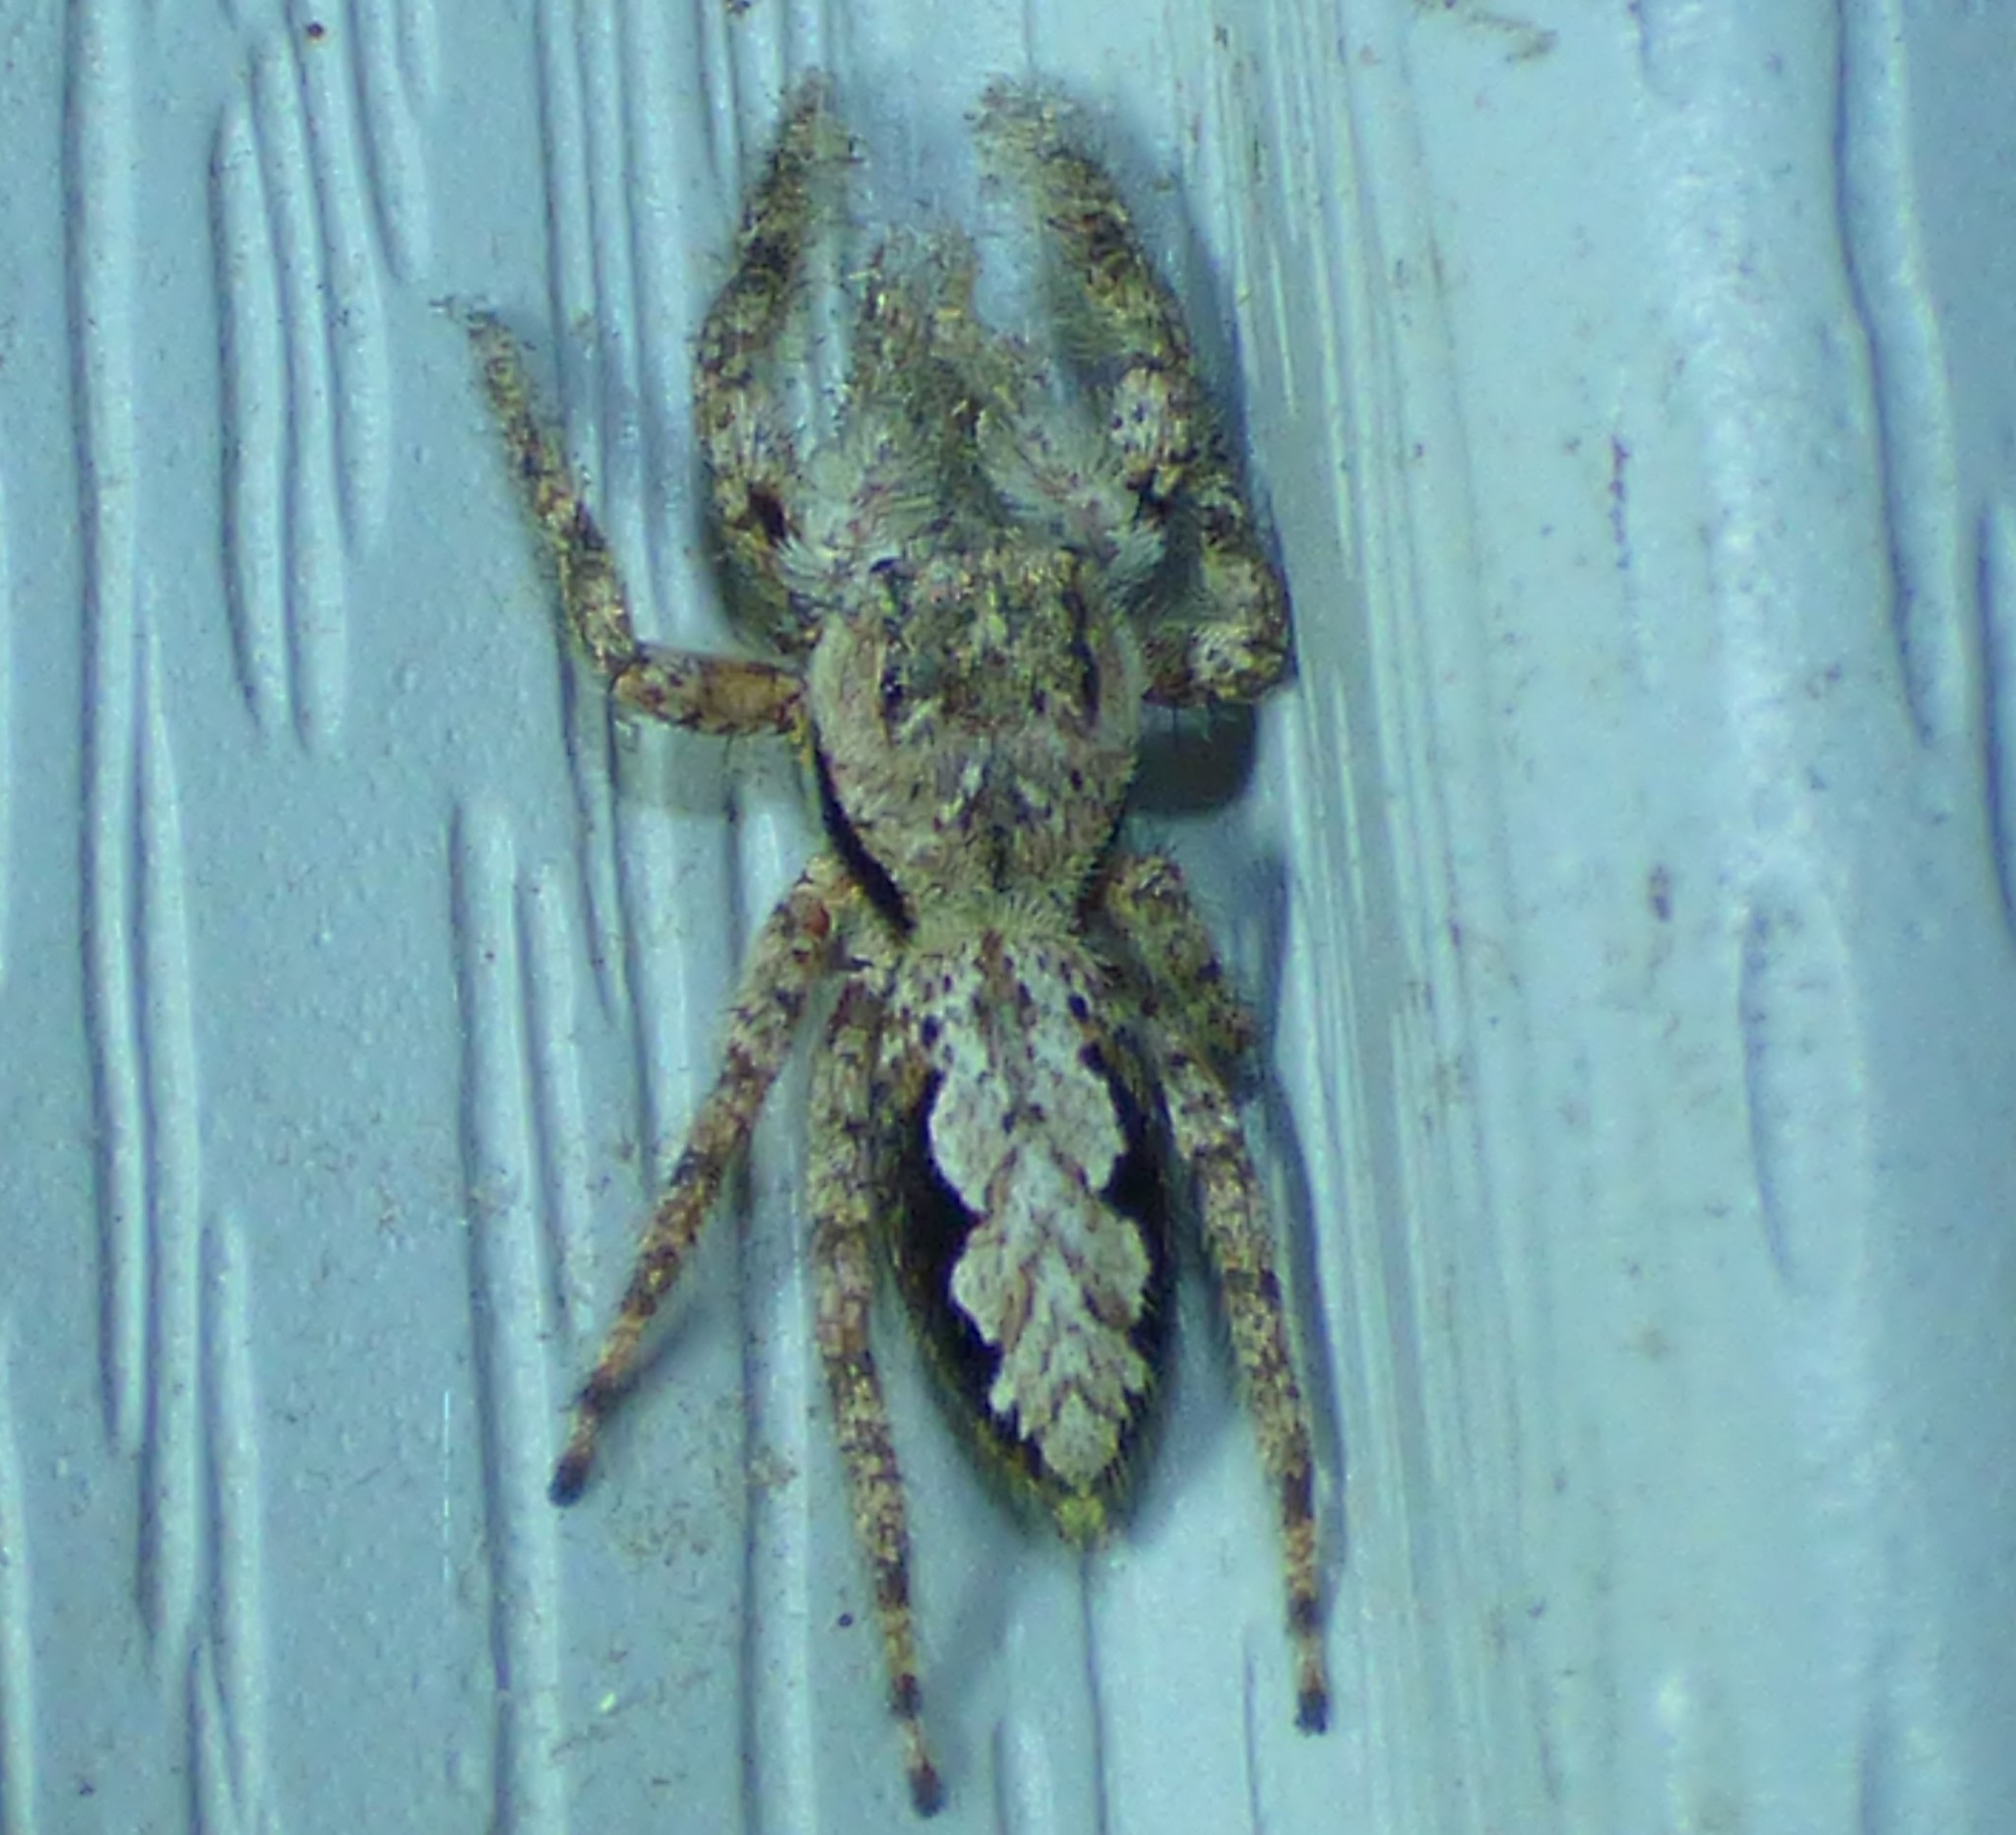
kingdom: Animalia
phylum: Arthropoda
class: Arachnida
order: Araneae
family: Salticidae
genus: Platycryptus
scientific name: Platycryptus undatus
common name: Tan jumping spider
